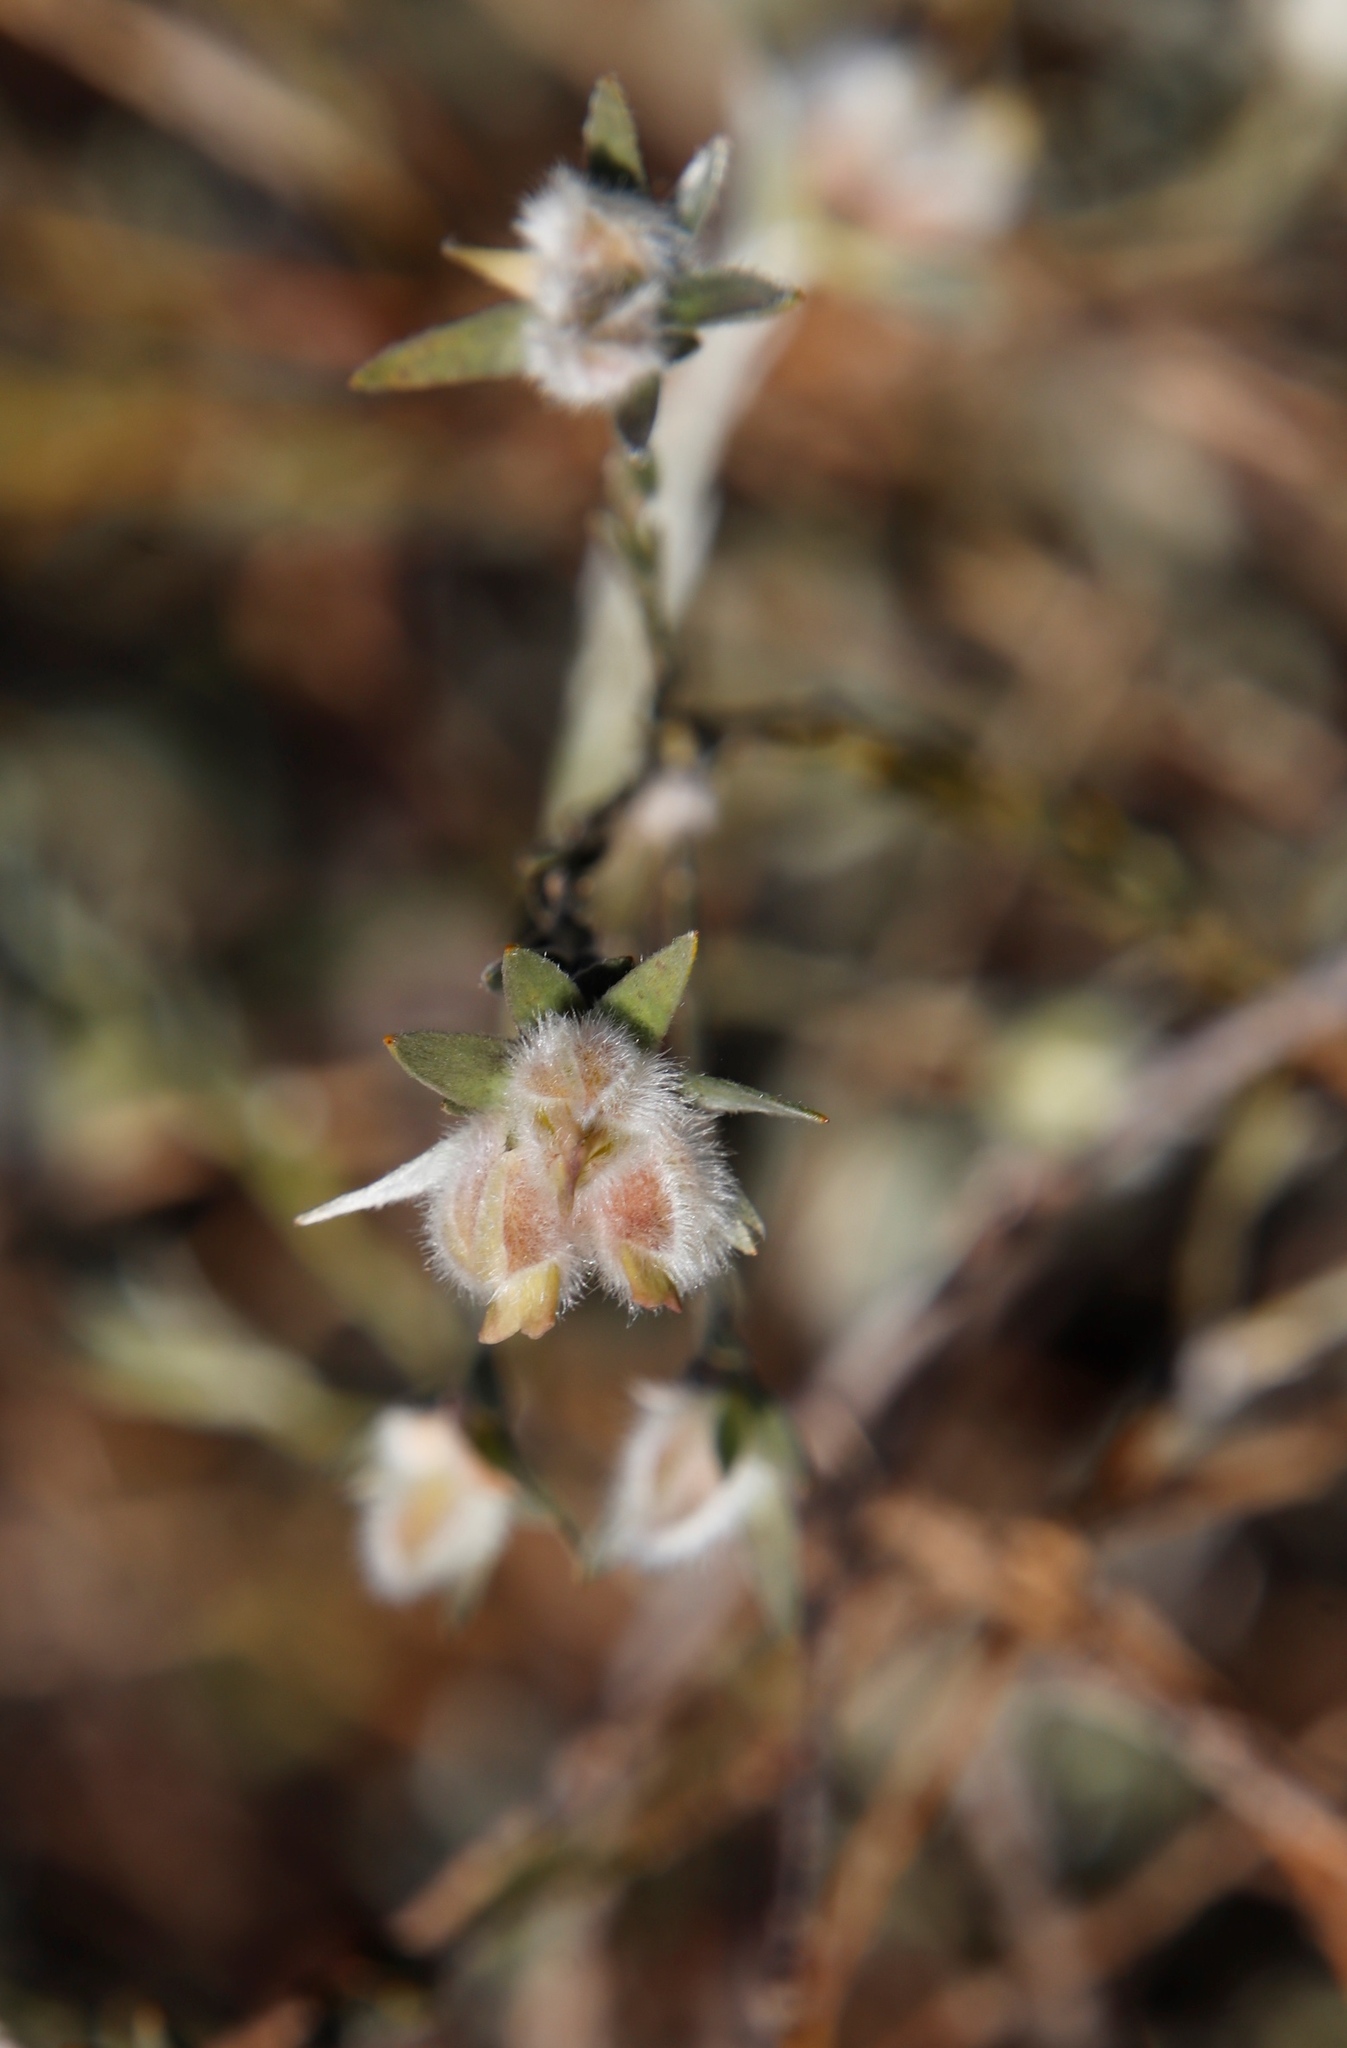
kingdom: Plantae
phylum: Tracheophyta
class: Magnoliopsida
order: Fabales
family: Fabaceae
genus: Amphithalea
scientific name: Amphithalea tomentosa
